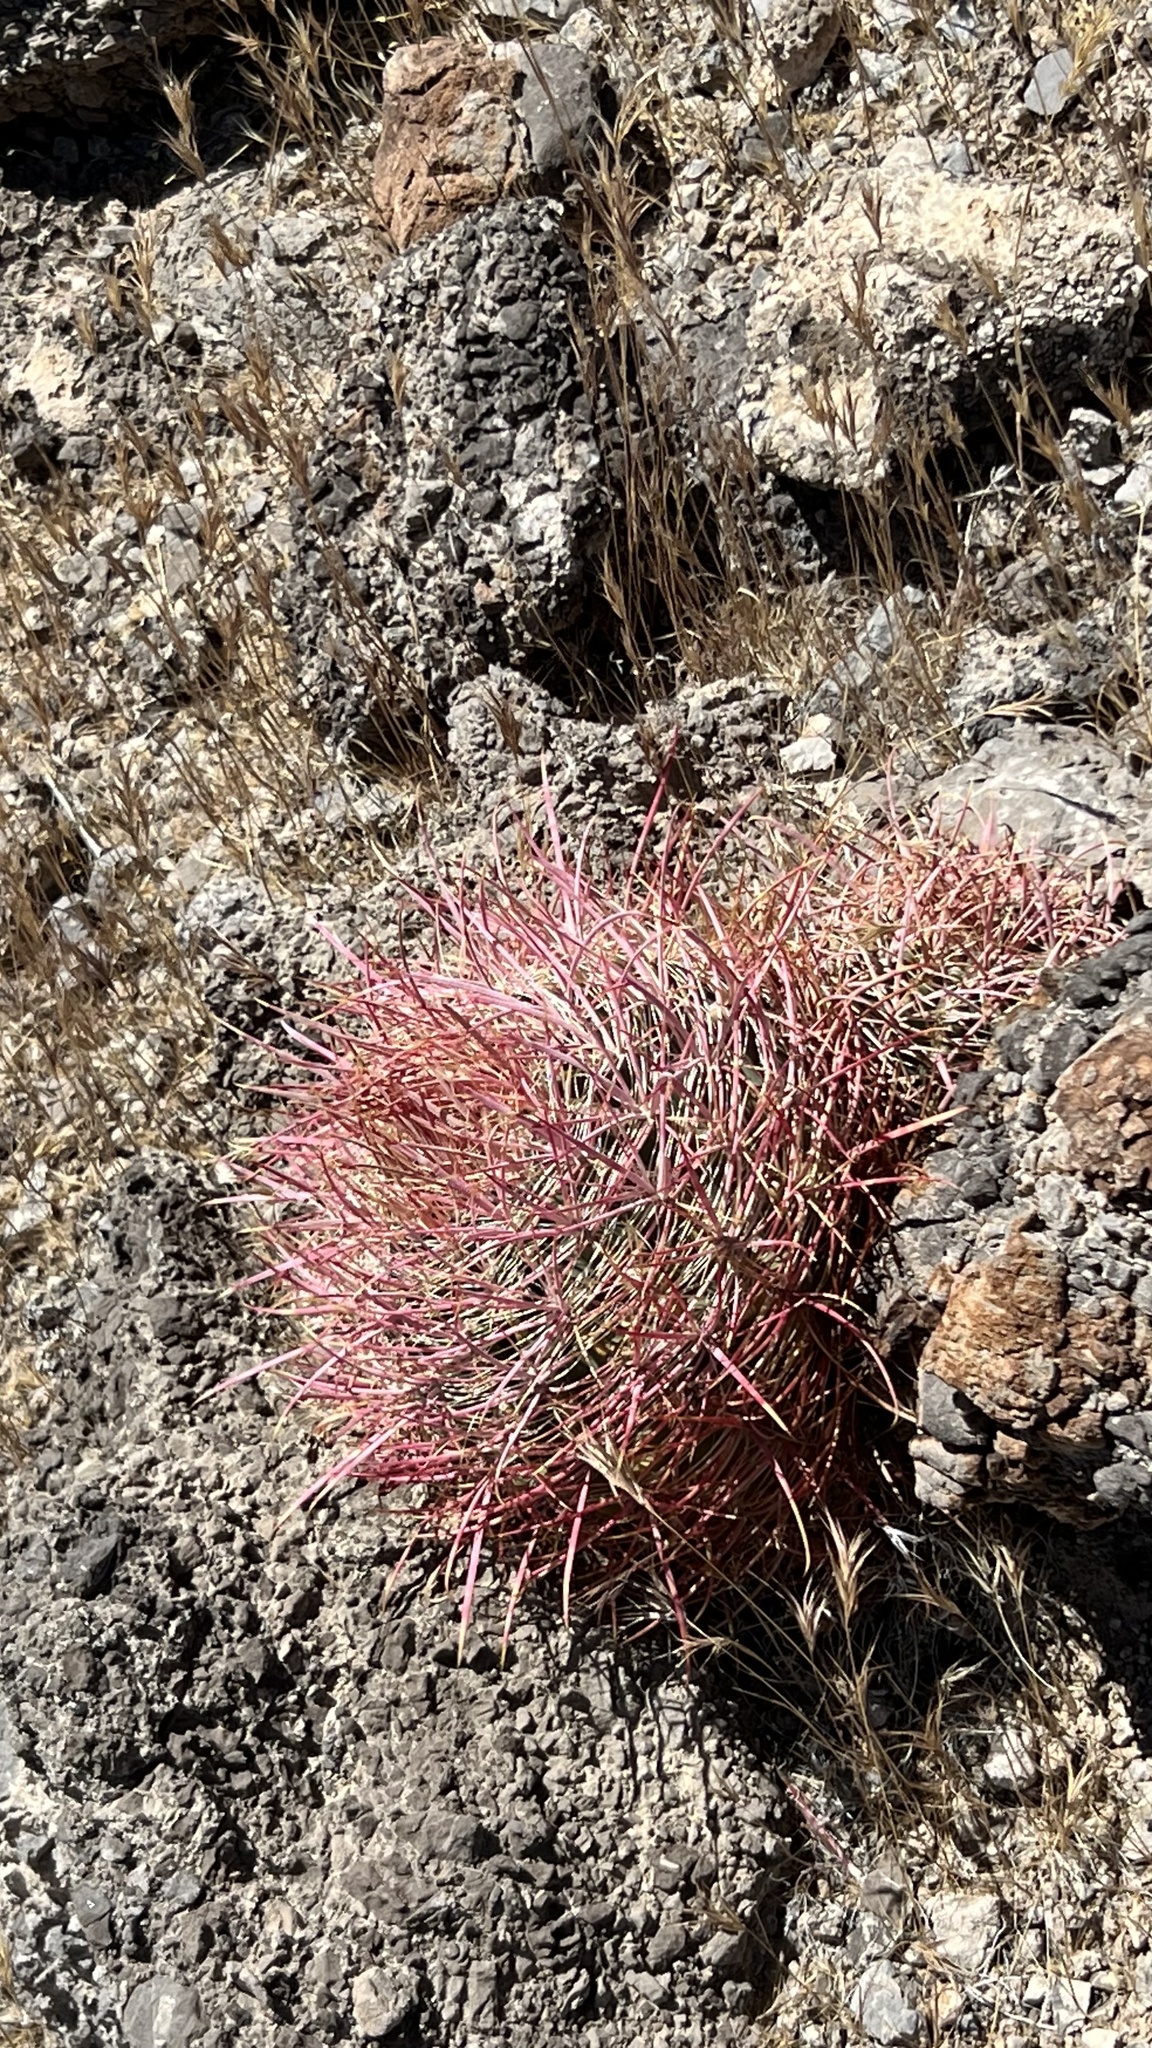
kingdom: Plantae
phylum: Tracheophyta
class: Magnoliopsida
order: Caryophyllales
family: Cactaceae
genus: Ferocactus
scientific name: Ferocactus cylindraceus
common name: California barrel cactus
